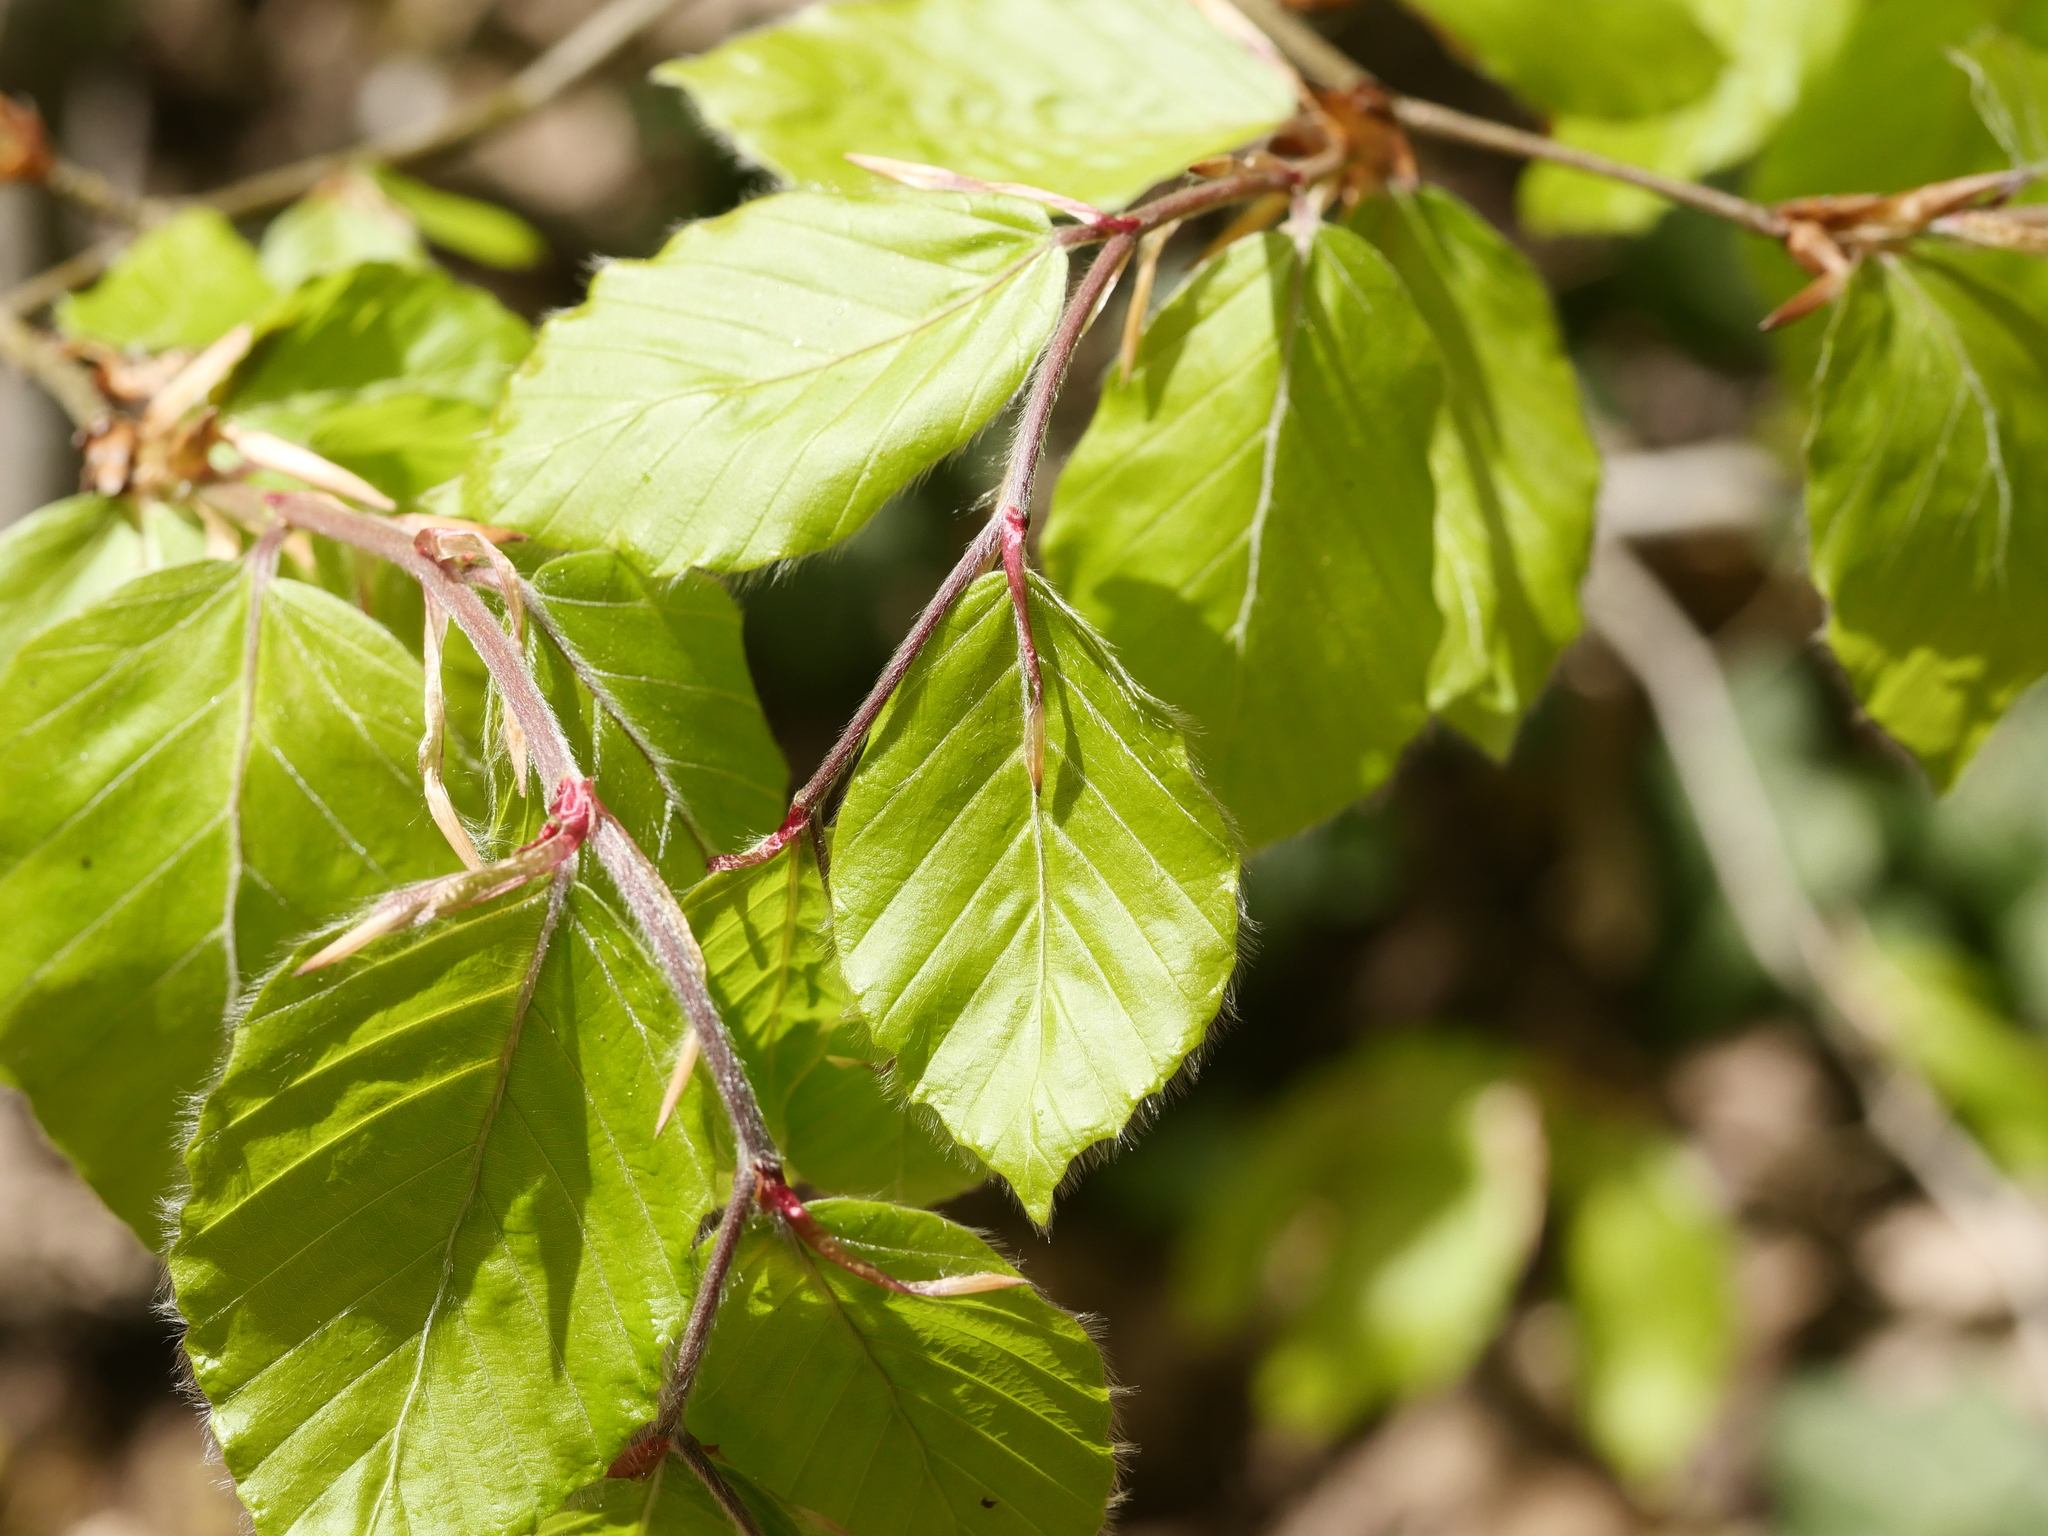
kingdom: Plantae
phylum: Tracheophyta
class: Magnoliopsida
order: Fagales
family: Fagaceae
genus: Fagus
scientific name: Fagus sylvatica
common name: Beech
